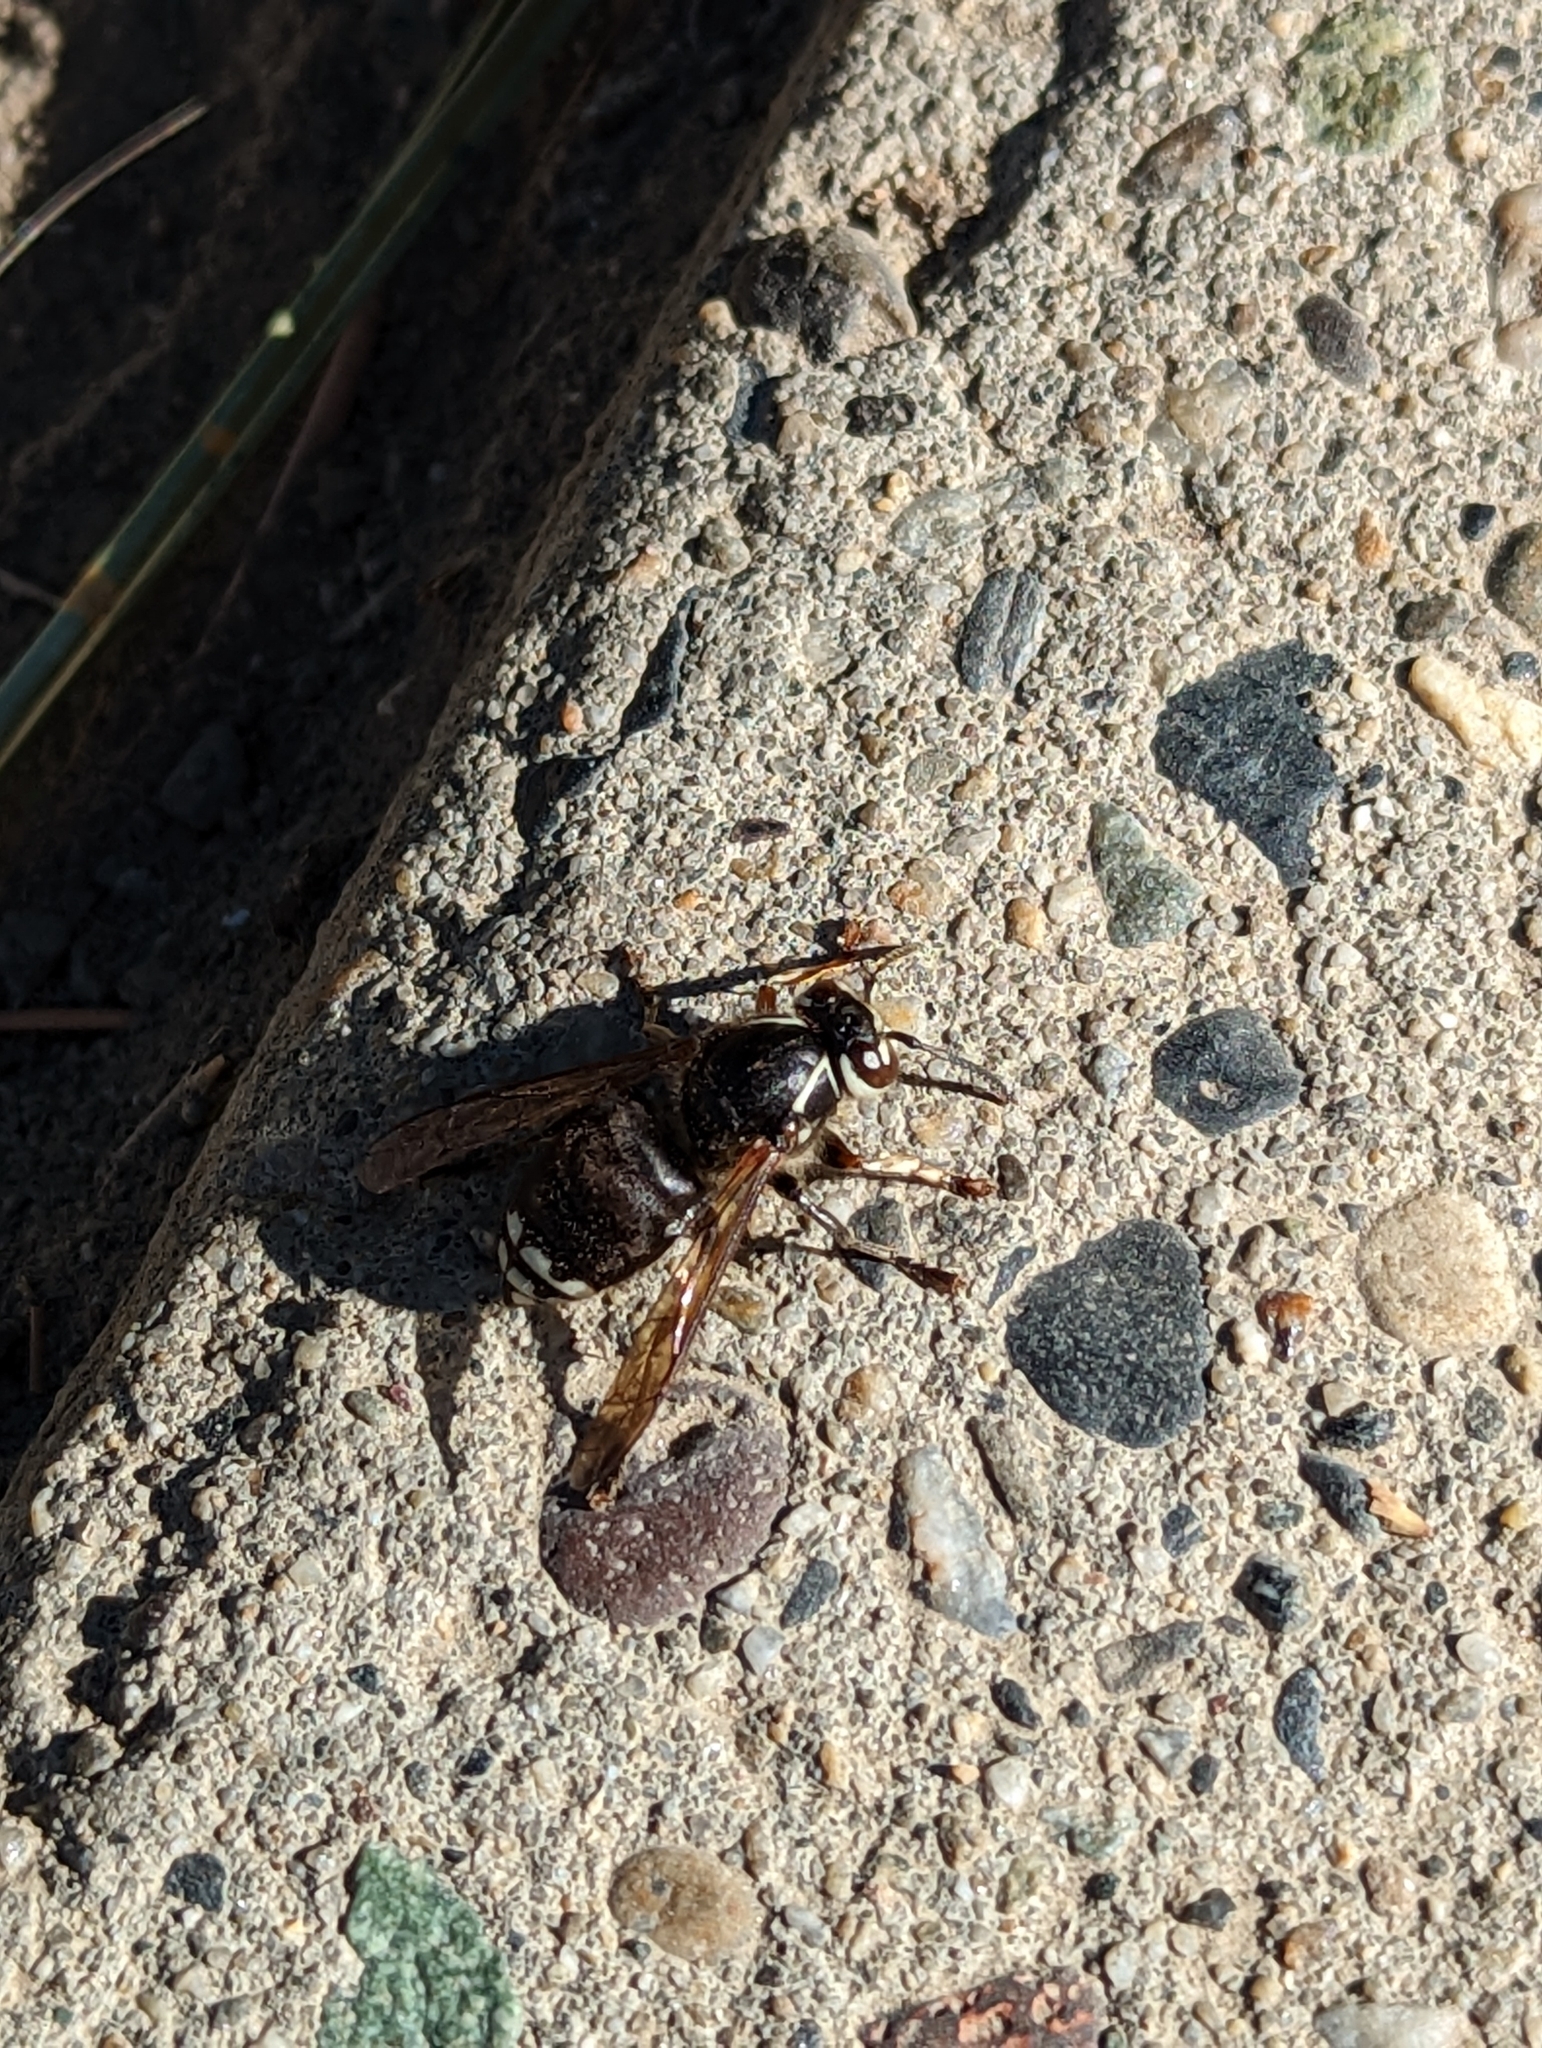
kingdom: Animalia
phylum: Arthropoda
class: Insecta
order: Hymenoptera
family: Vespidae
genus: Dolichovespula
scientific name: Dolichovespula maculata
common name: Bald-faced hornet
